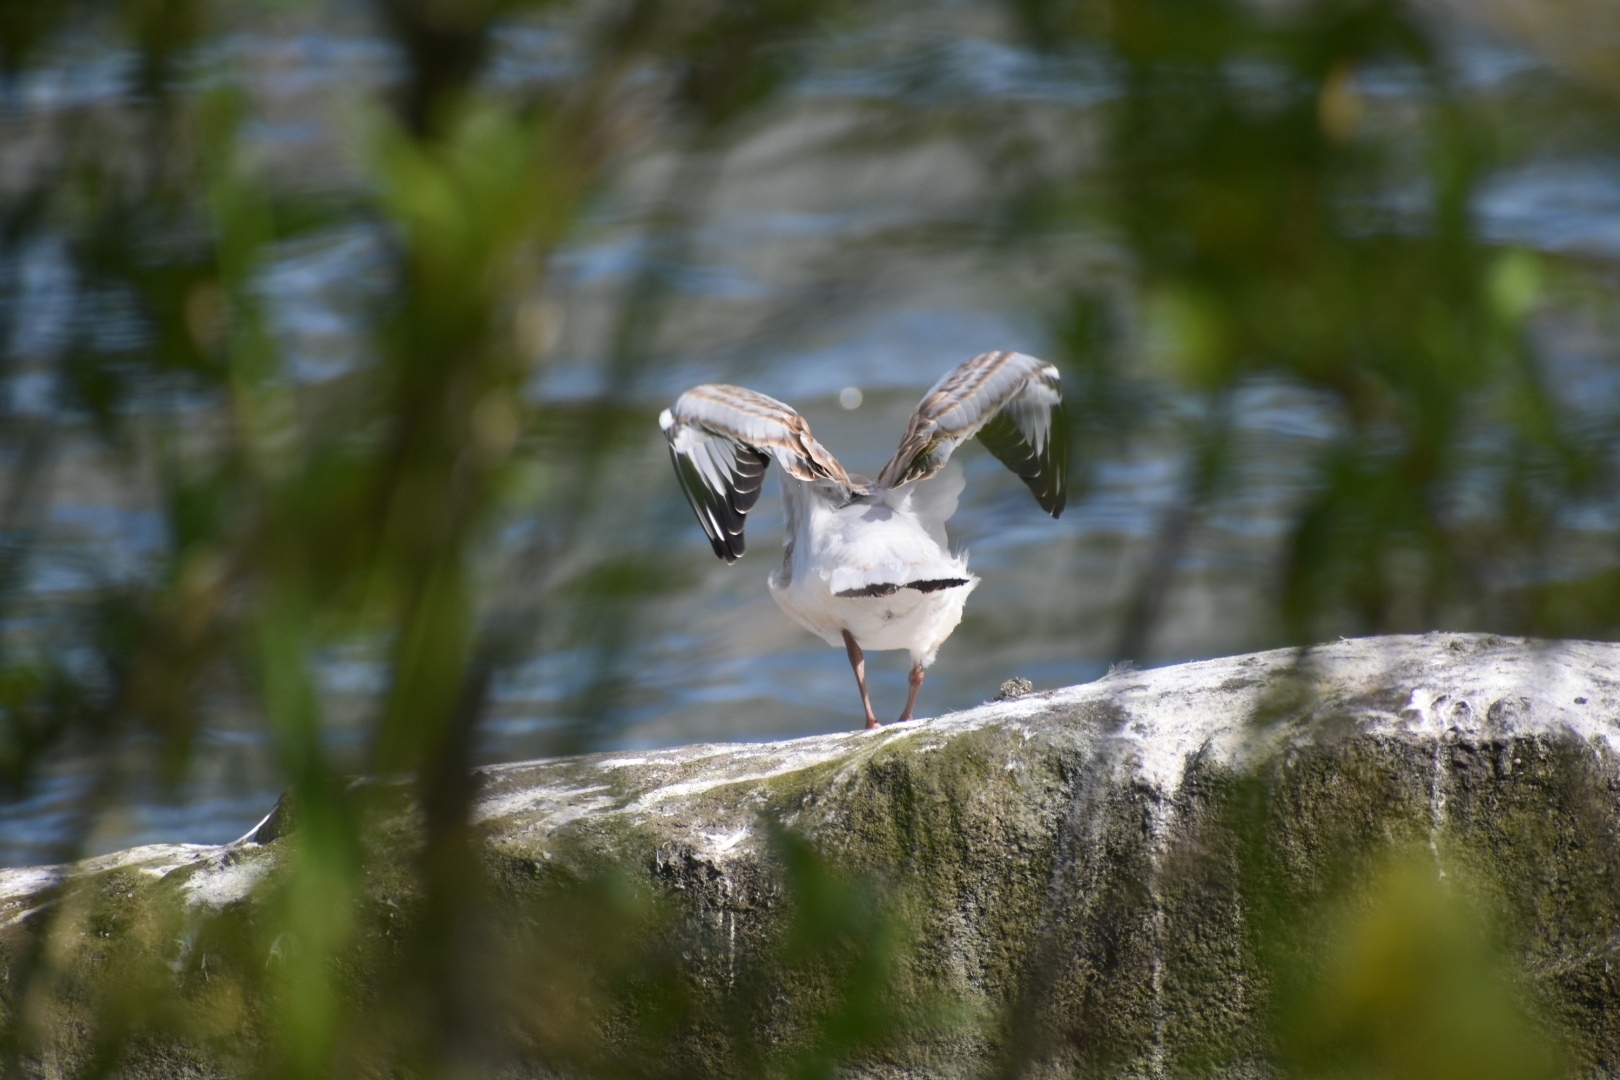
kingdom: Animalia
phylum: Chordata
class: Aves
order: Charadriiformes
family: Laridae
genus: Chroicocephalus
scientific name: Chroicocephalus ridibundus
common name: Black-headed gull
